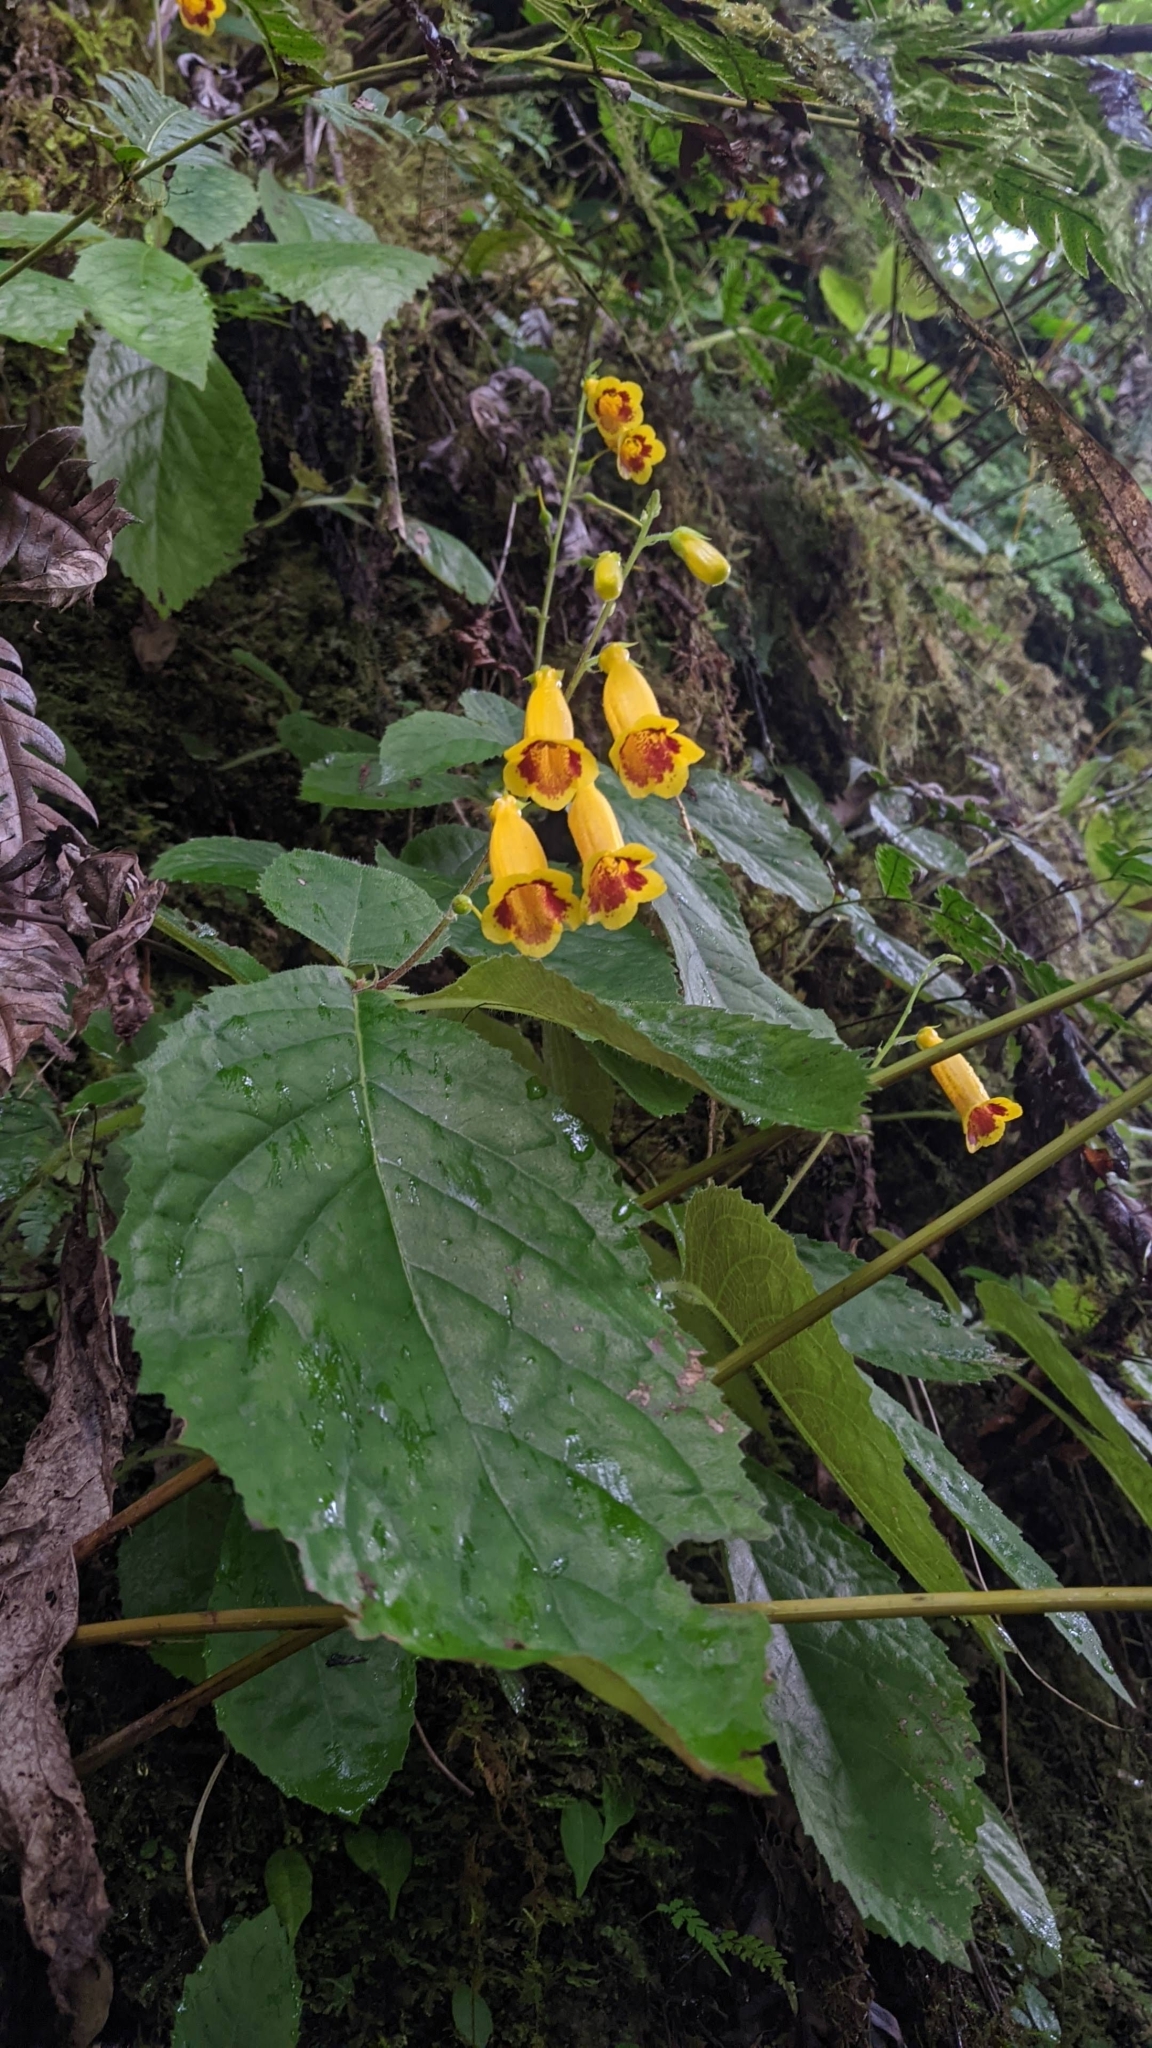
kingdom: Plantae
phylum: Tracheophyta
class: Magnoliopsida
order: Lamiales
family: Gesneriaceae
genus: Titanotrichum
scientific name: Titanotrichum oldhamii
